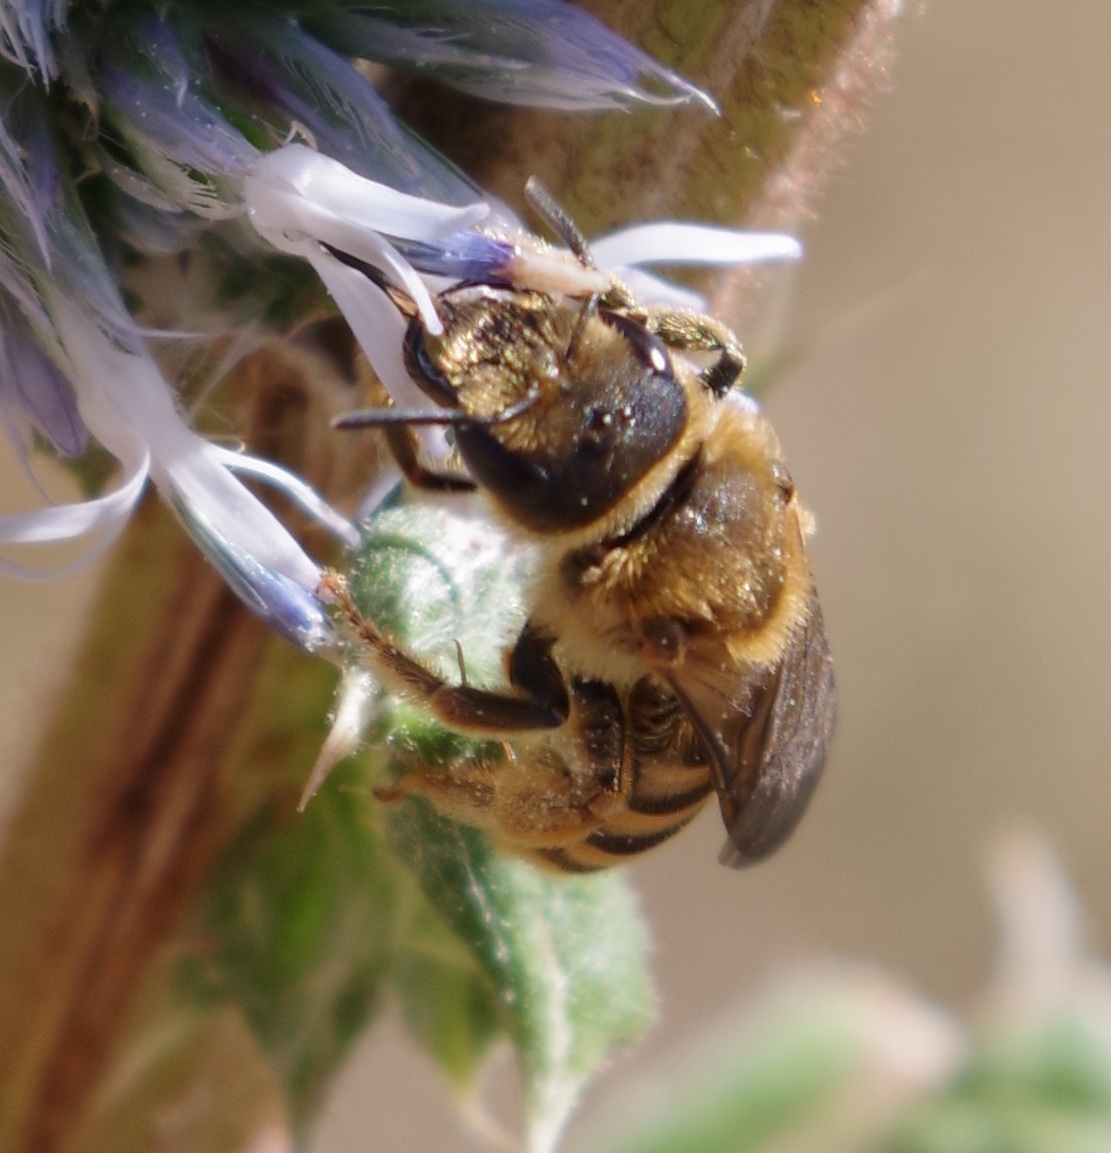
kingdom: Animalia
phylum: Arthropoda
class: Insecta
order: Hymenoptera
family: Halictidae
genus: Halictus
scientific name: Halictus scabiosae
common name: Great banded furrow bee
